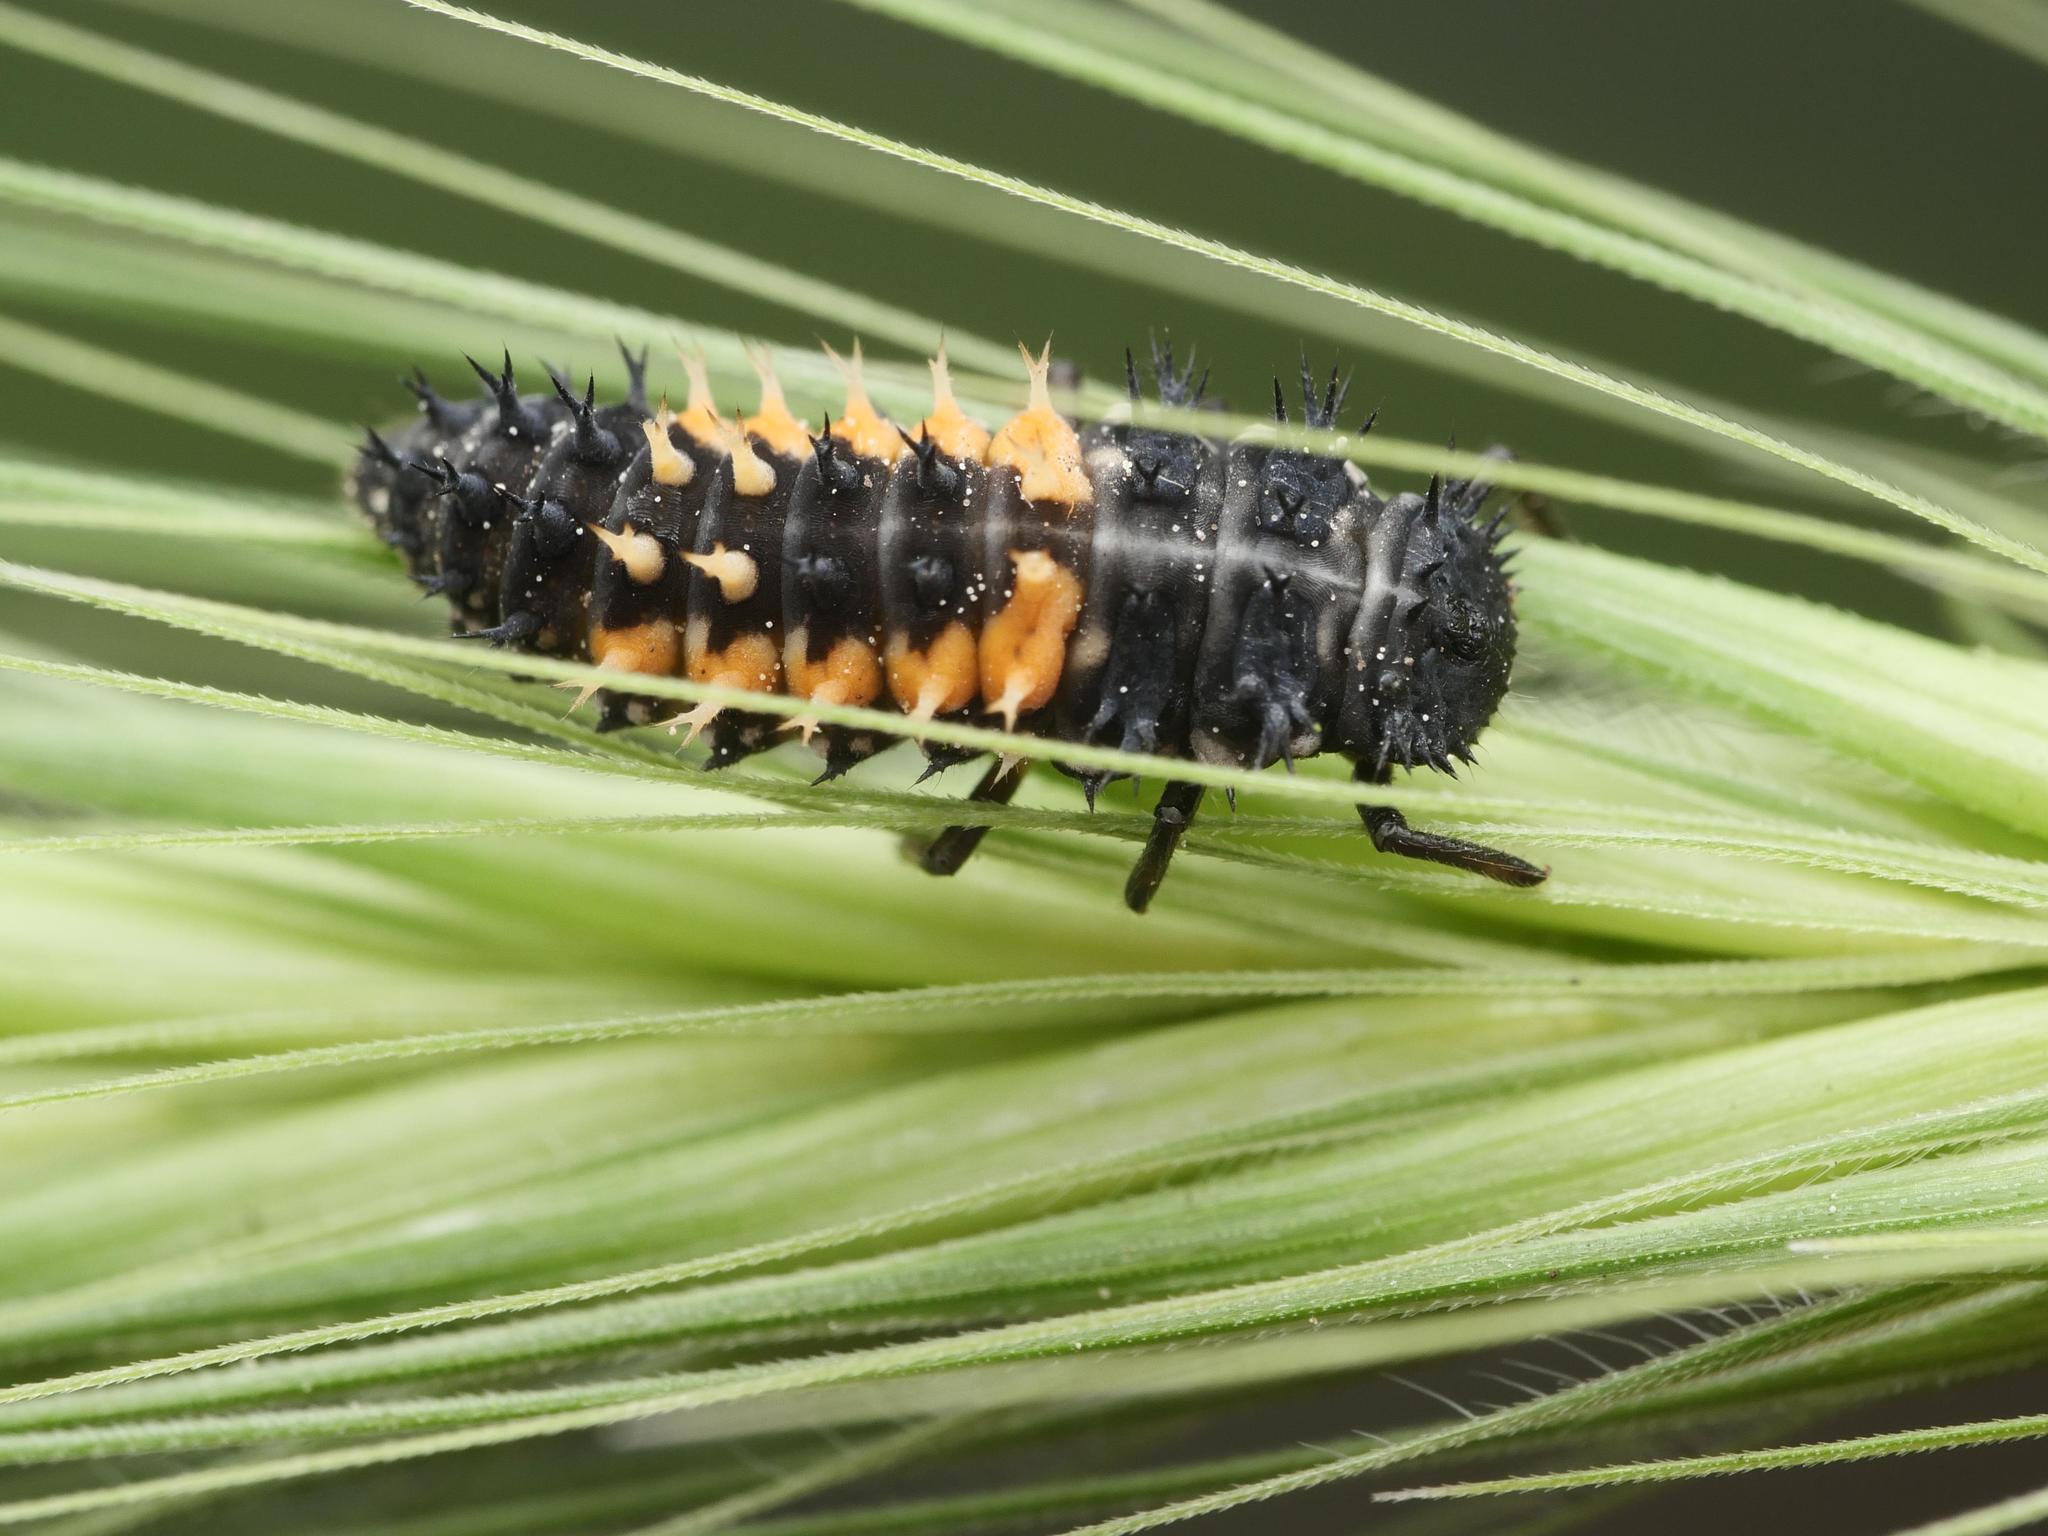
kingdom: Animalia
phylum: Arthropoda
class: Insecta
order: Coleoptera
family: Coccinellidae
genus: Harmonia
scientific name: Harmonia axyridis
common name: Harlequin ladybird
